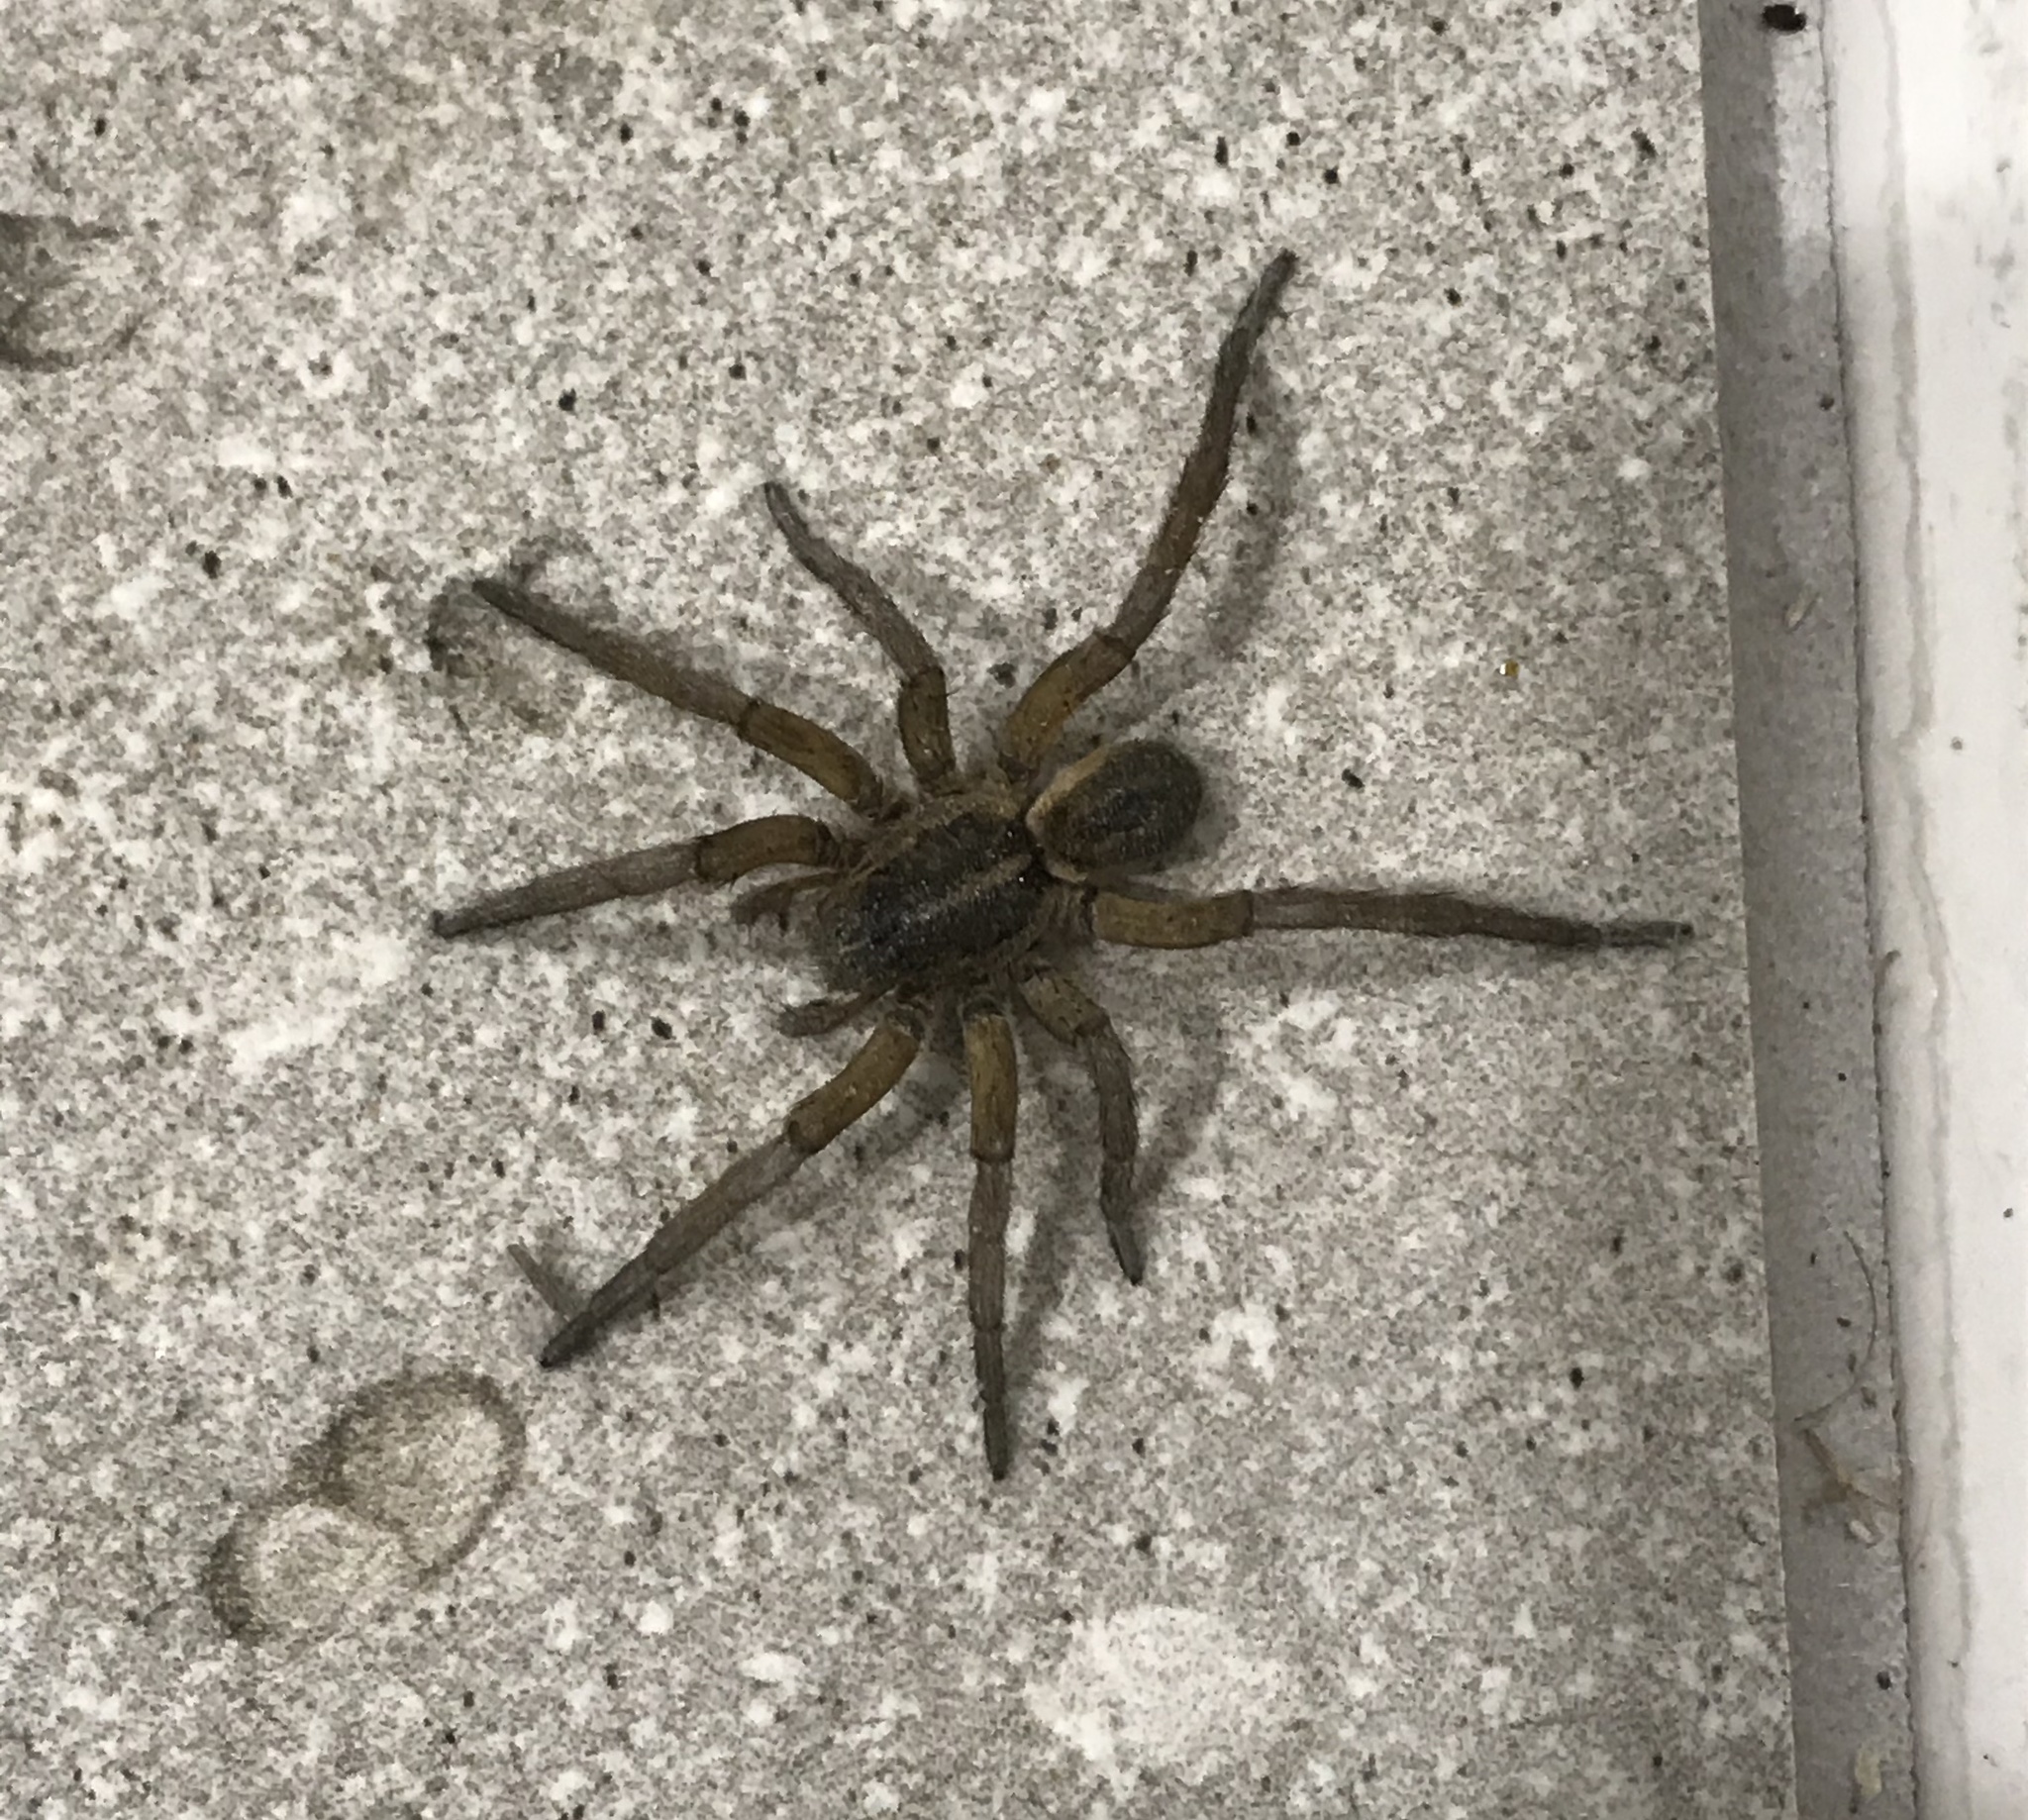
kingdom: Animalia
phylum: Arthropoda
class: Arachnida
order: Araneae
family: Lycosidae
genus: Tigrosa
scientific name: Tigrosa annexa
